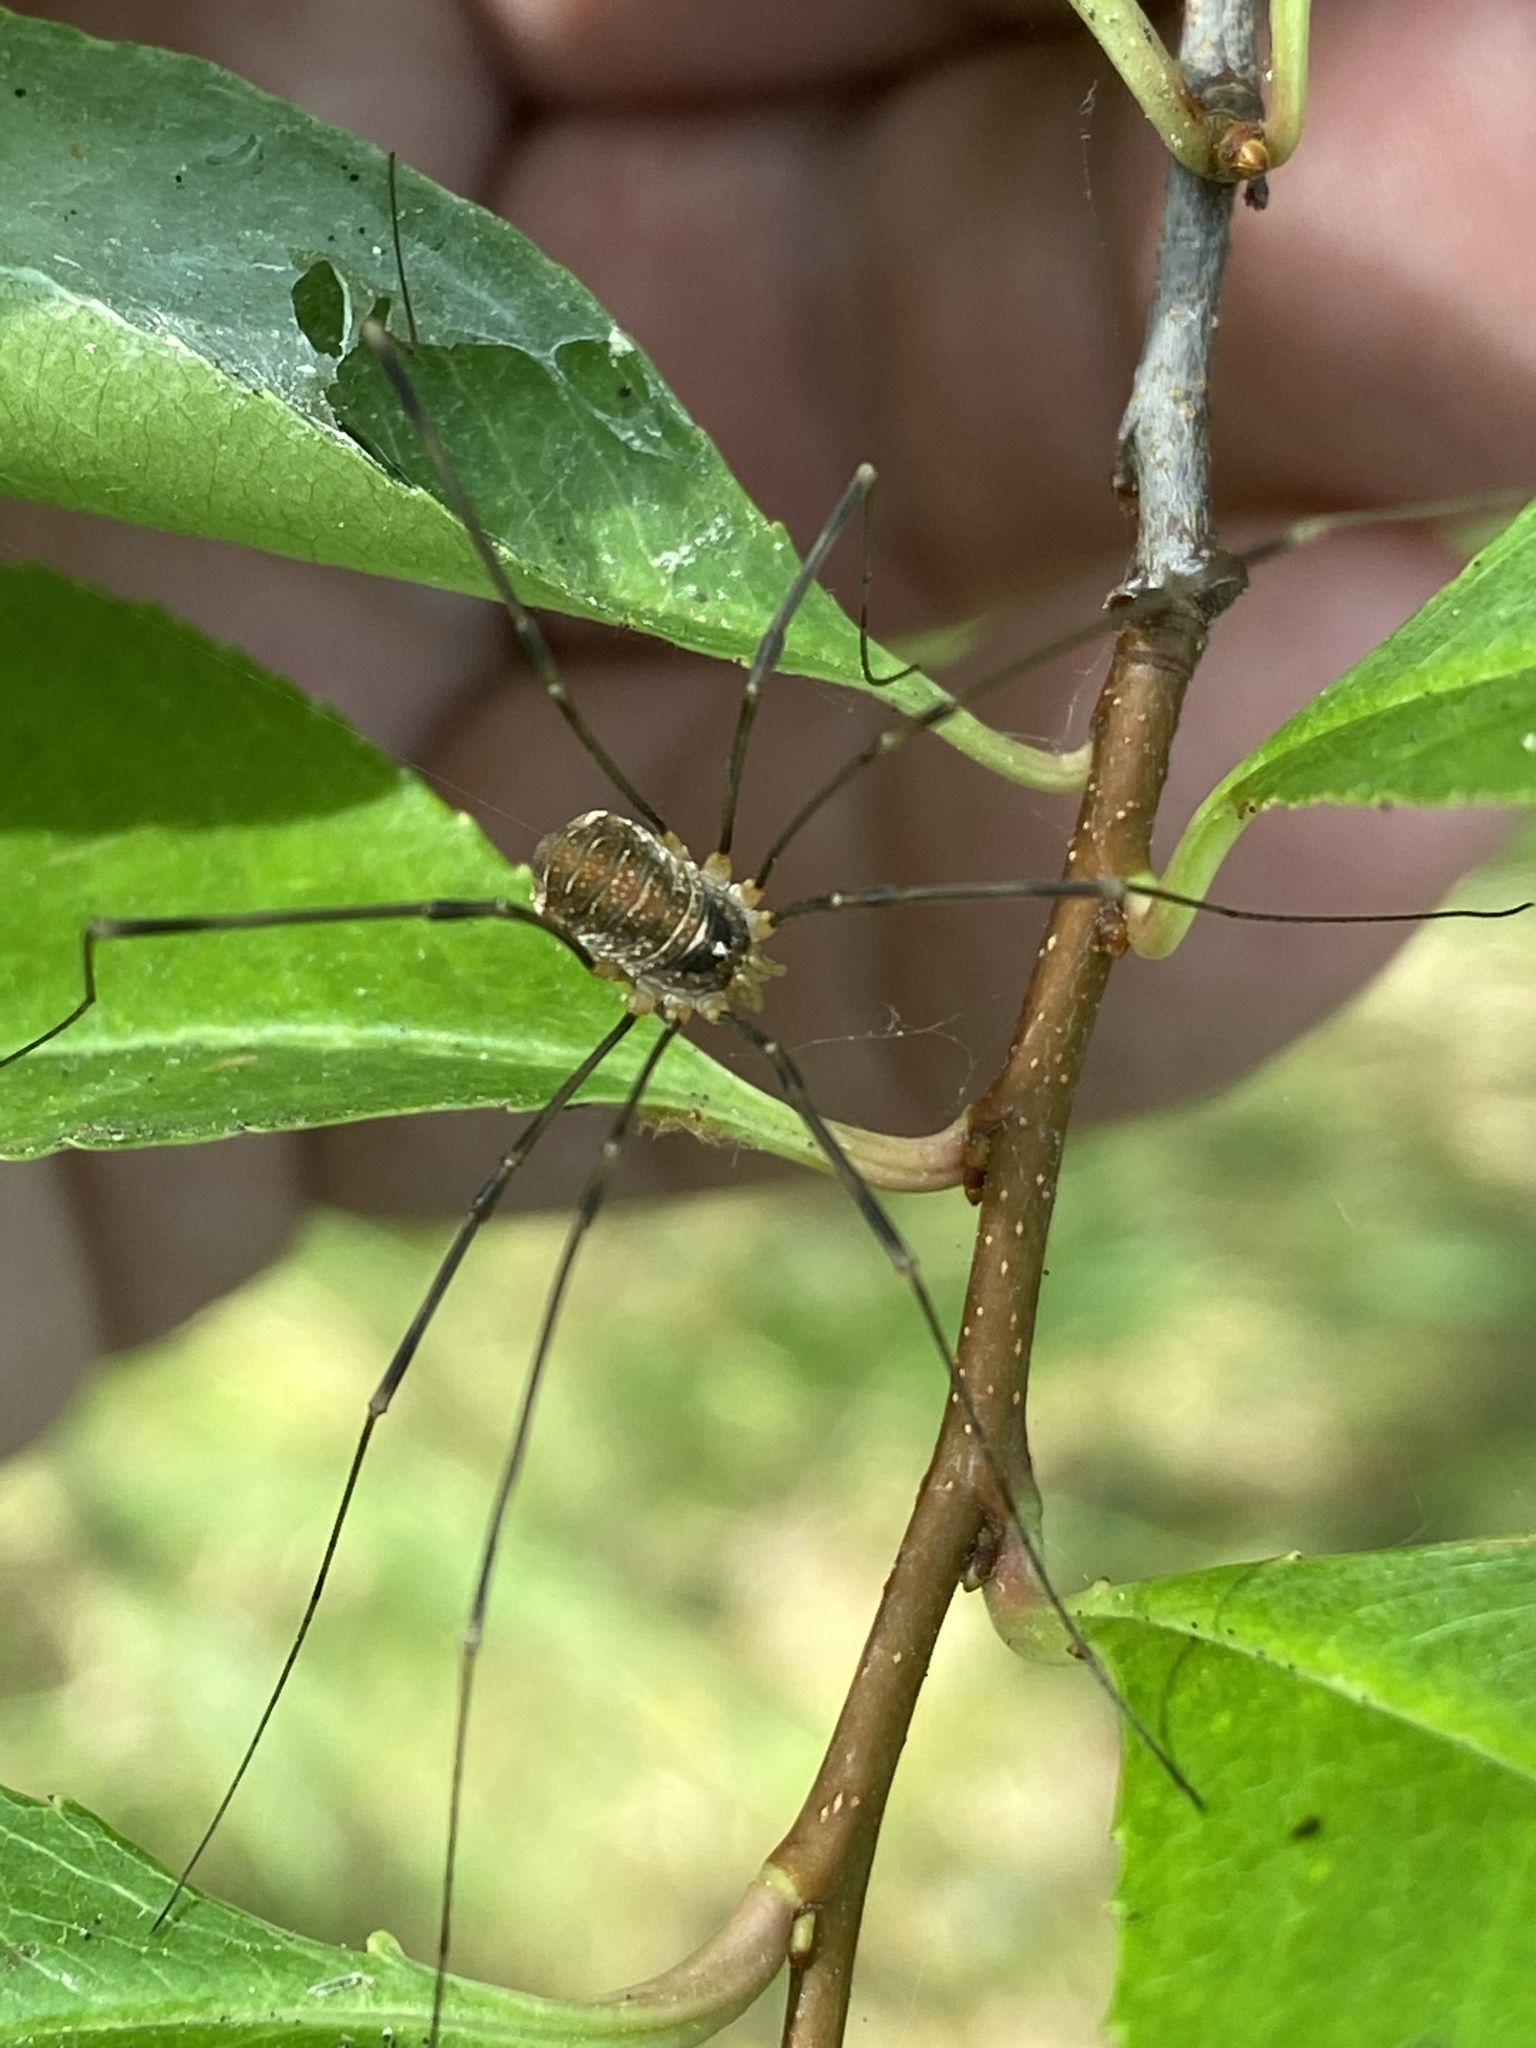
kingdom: Animalia
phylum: Arthropoda
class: Arachnida
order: Opiliones
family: Phalangiidae
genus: Opilio
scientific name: Opilio canestrinii
